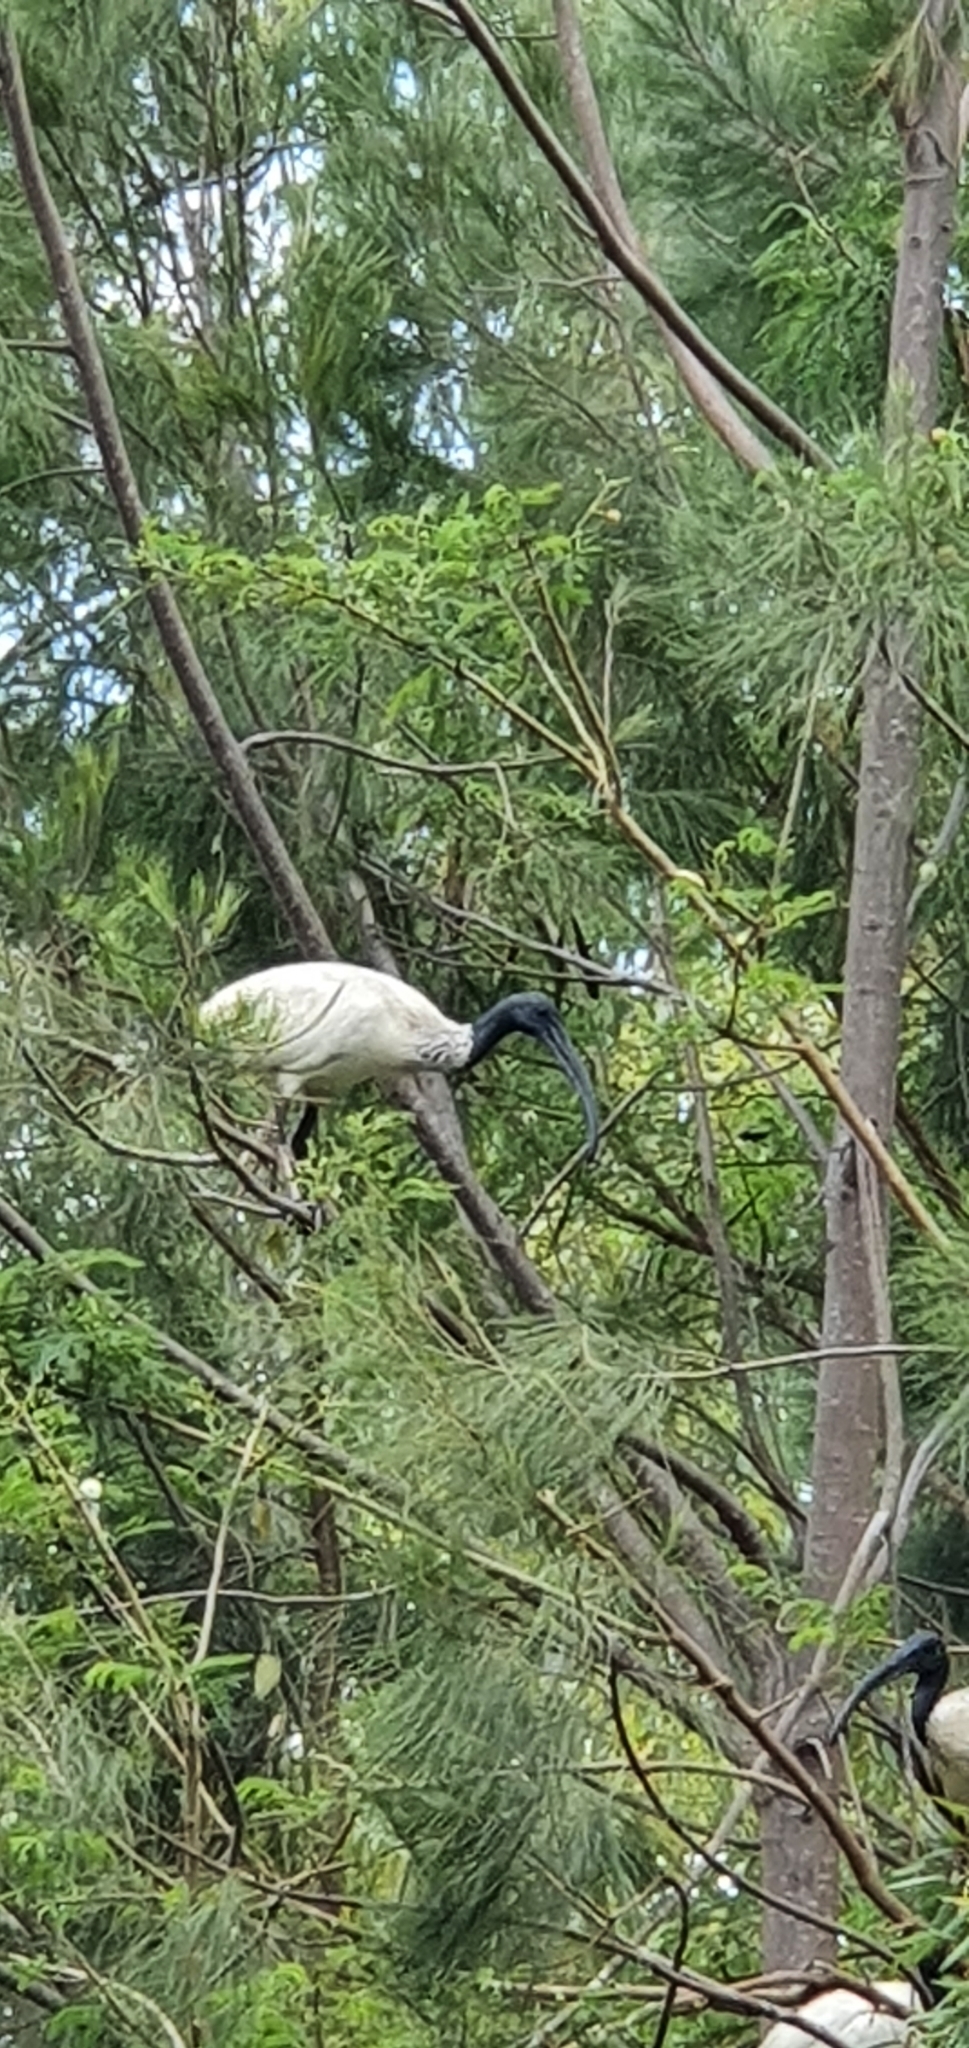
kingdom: Animalia
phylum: Chordata
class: Aves
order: Pelecaniformes
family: Threskiornithidae
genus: Threskiornis
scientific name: Threskiornis molucca
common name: Australian white ibis
